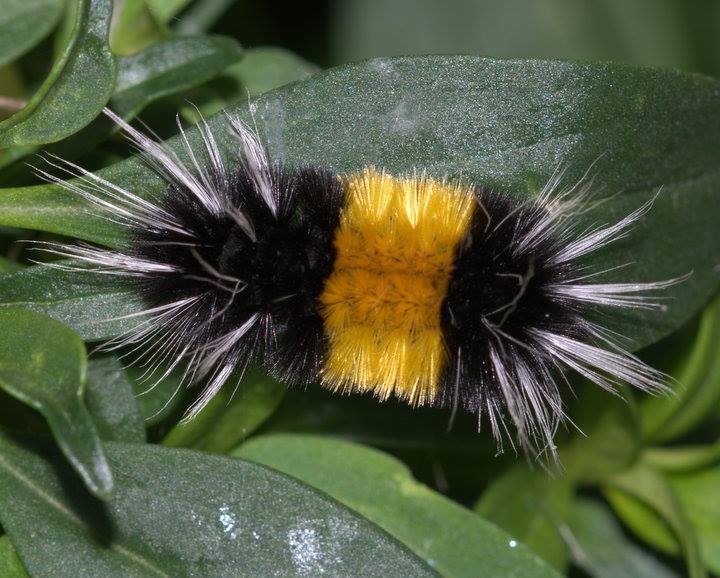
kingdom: Animalia
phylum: Arthropoda
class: Insecta
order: Lepidoptera
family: Erebidae
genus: Lophocampa
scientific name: Lophocampa maculata
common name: Spotted tussock moth
